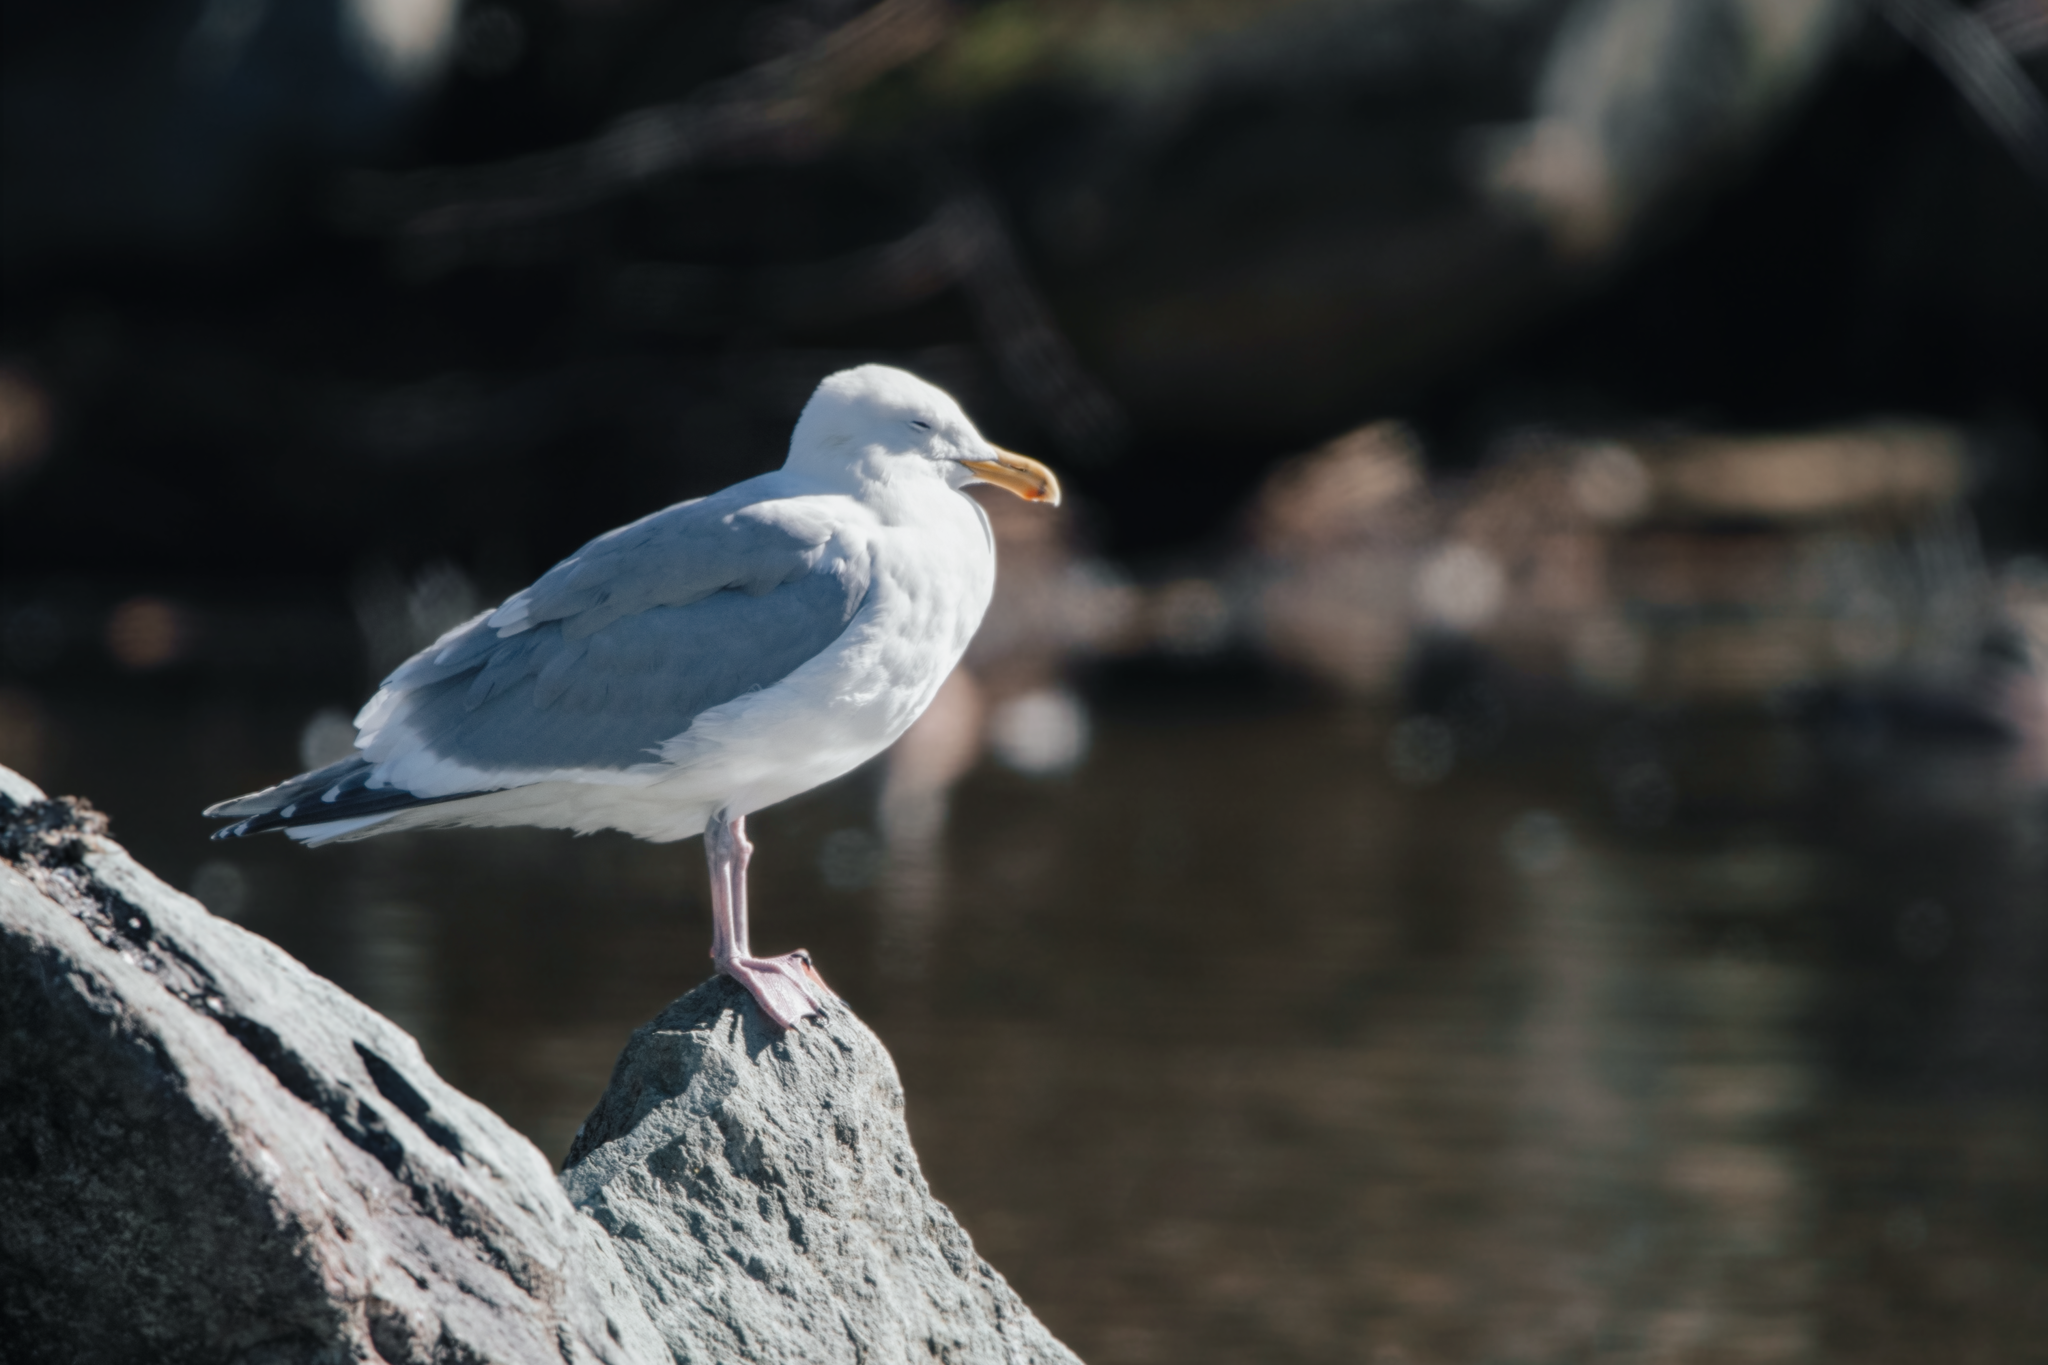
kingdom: Animalia
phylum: Chordata
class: Aves
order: Charadriiformes
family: Laridae
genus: Larus
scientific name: Larus
